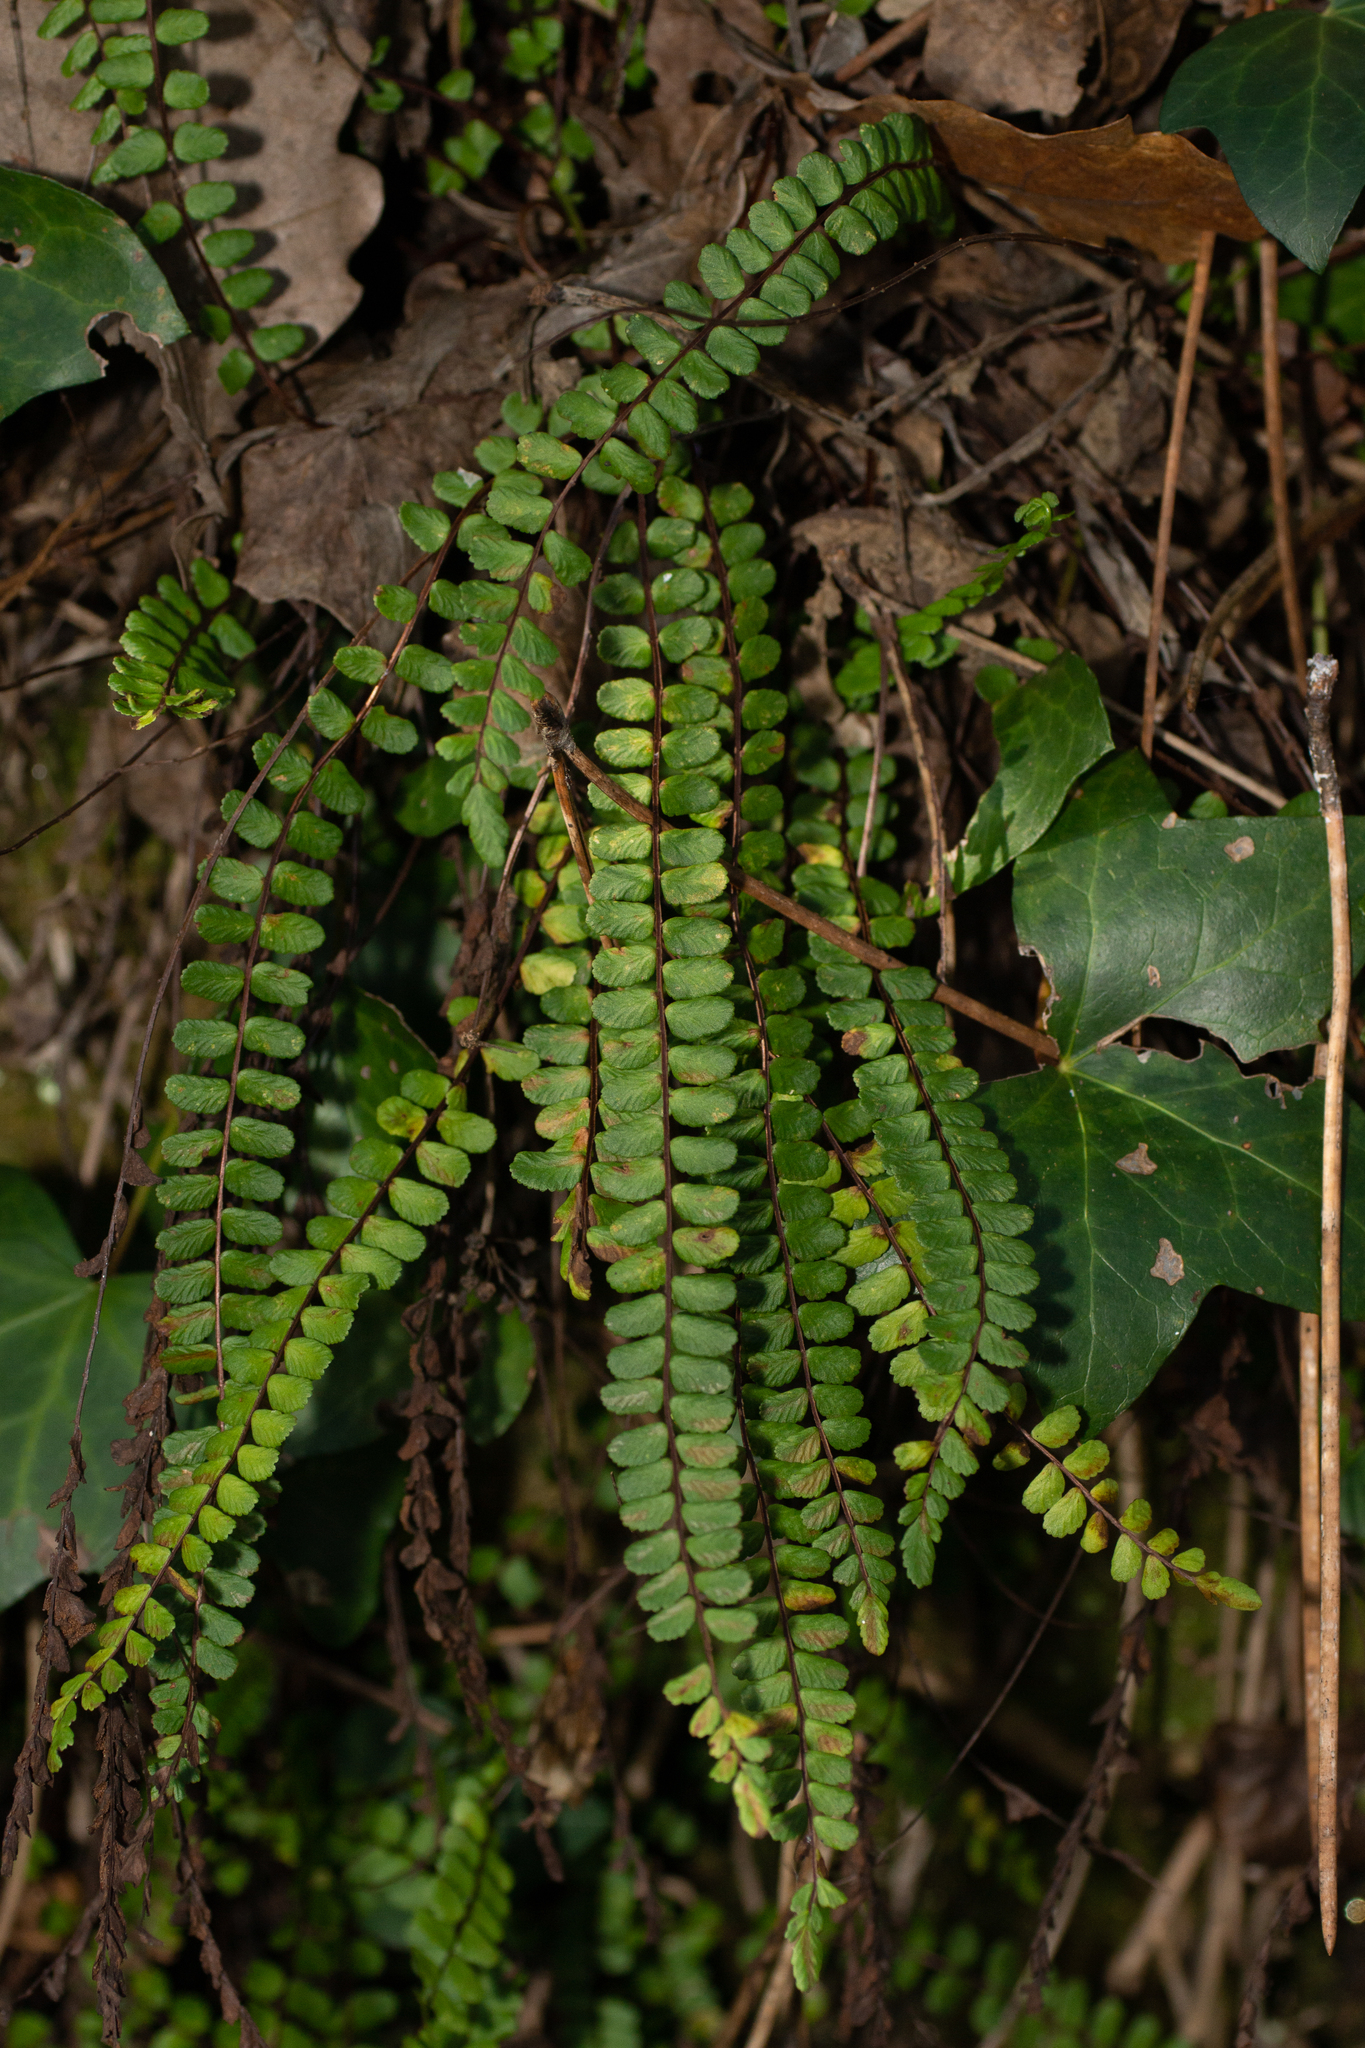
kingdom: Plantae
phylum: Tracheophyta
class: Polypodiopsida
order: Polypodiales
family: Aspleniaceae
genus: Asplenium
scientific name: Asplenium trichomanes
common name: Maidenhair spleenwort
